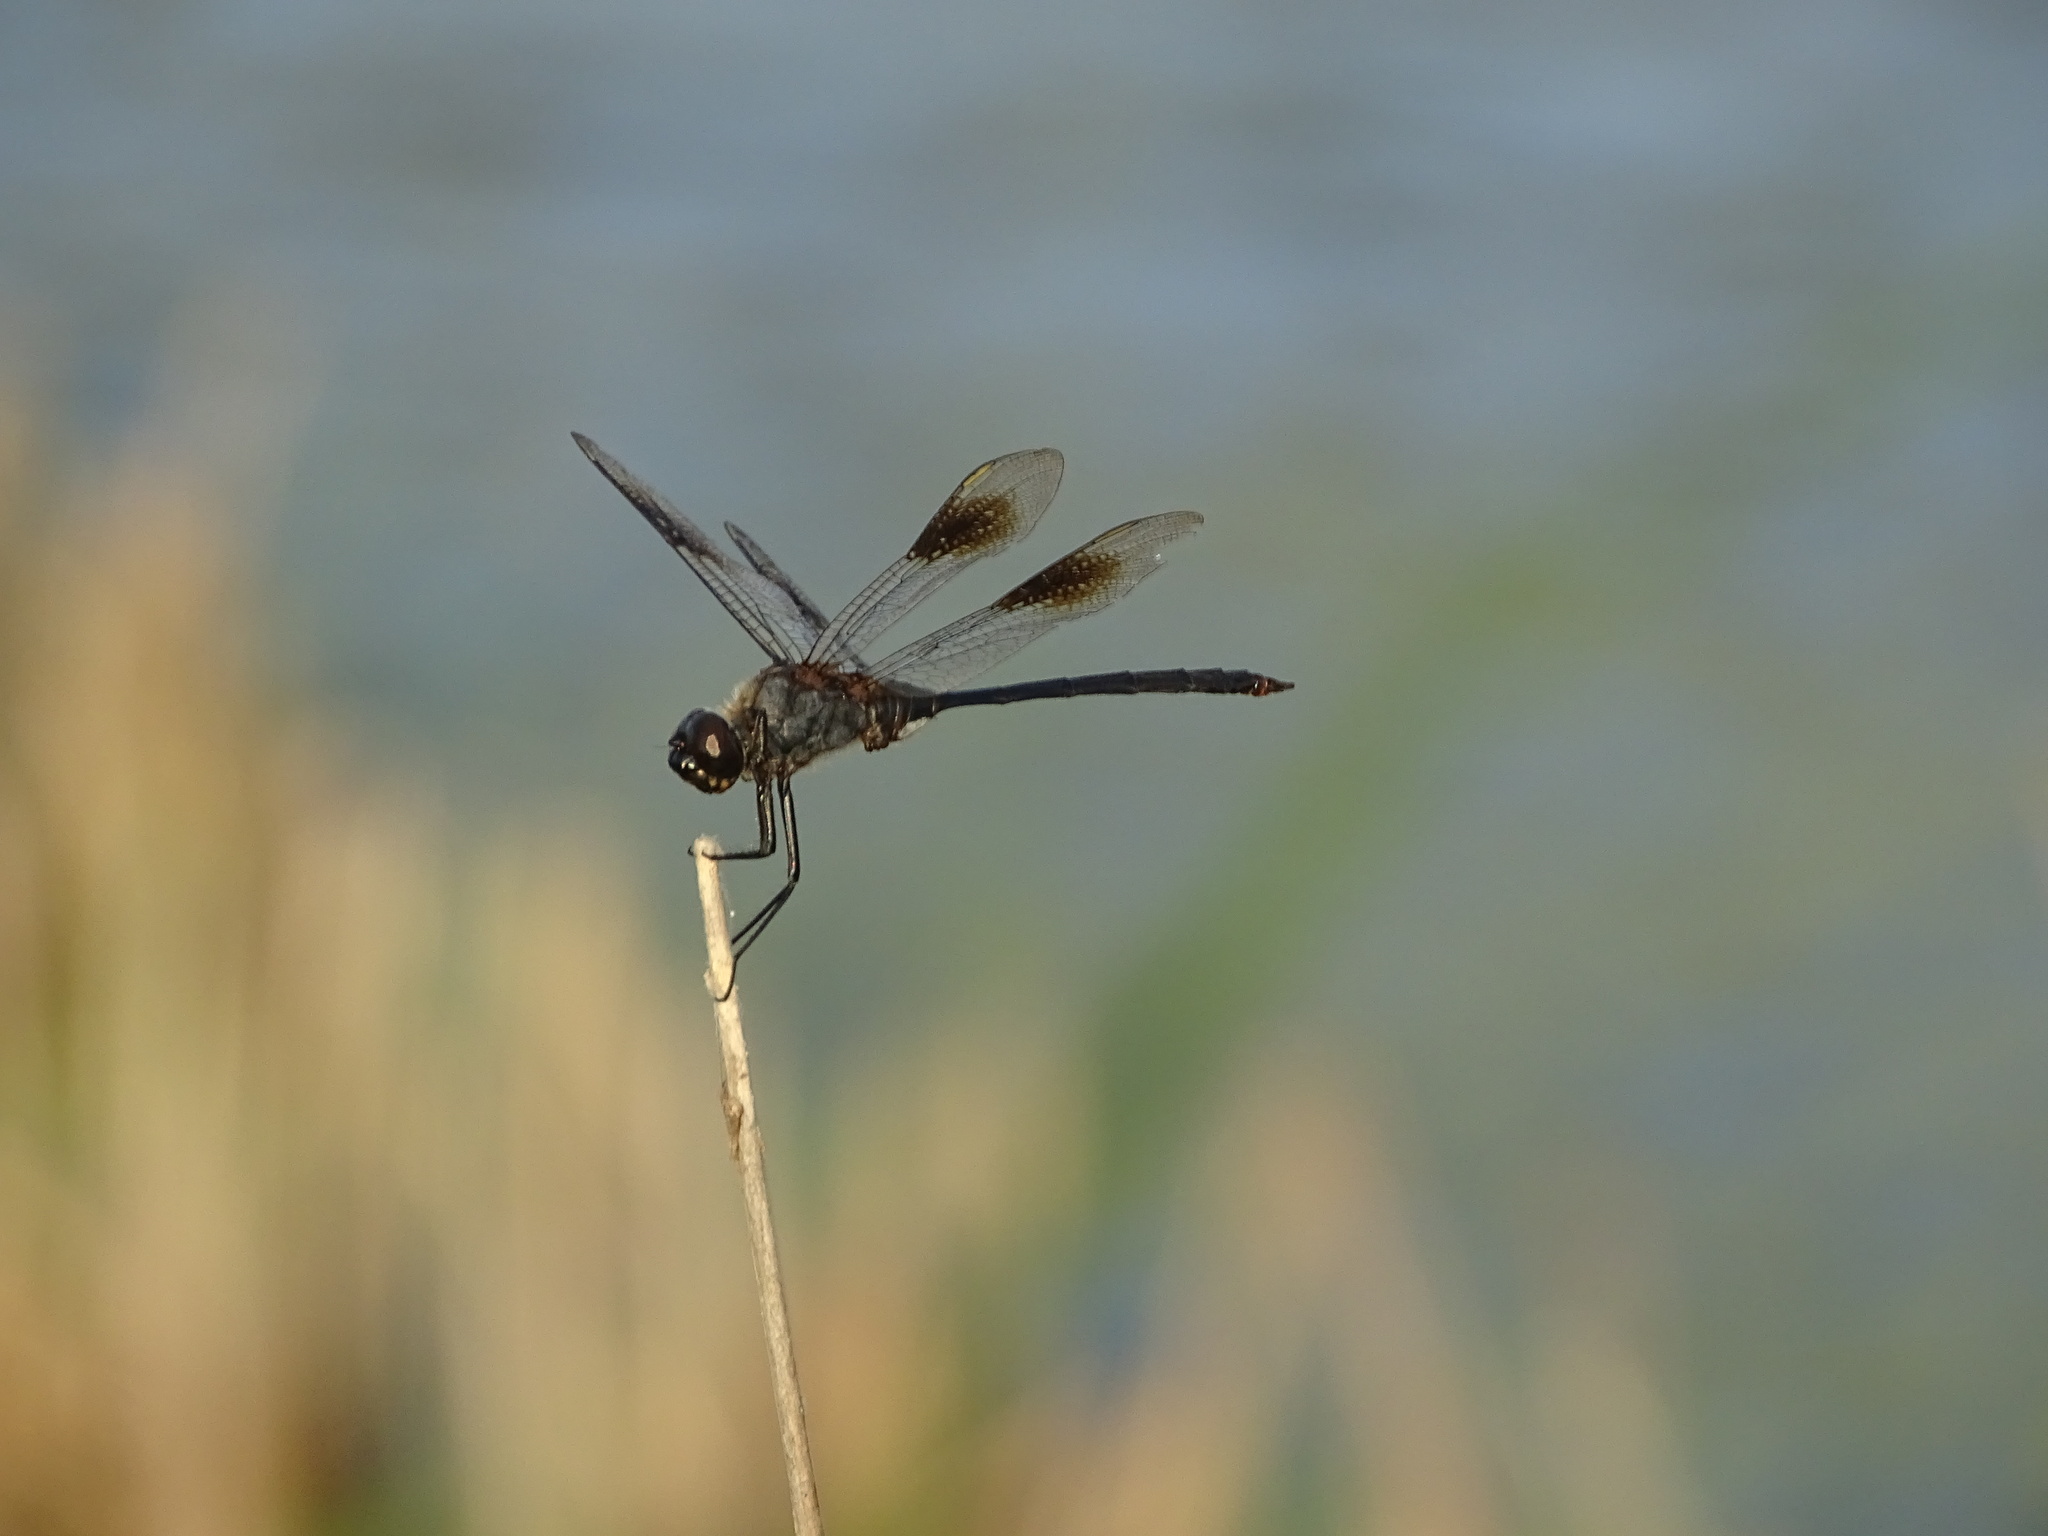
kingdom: Animalia
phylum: Arthropoda
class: Insecta
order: Odonata
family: Libellulidae
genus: Brachymesia
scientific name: Brachymesia gravida
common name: Four-spotted pennant
